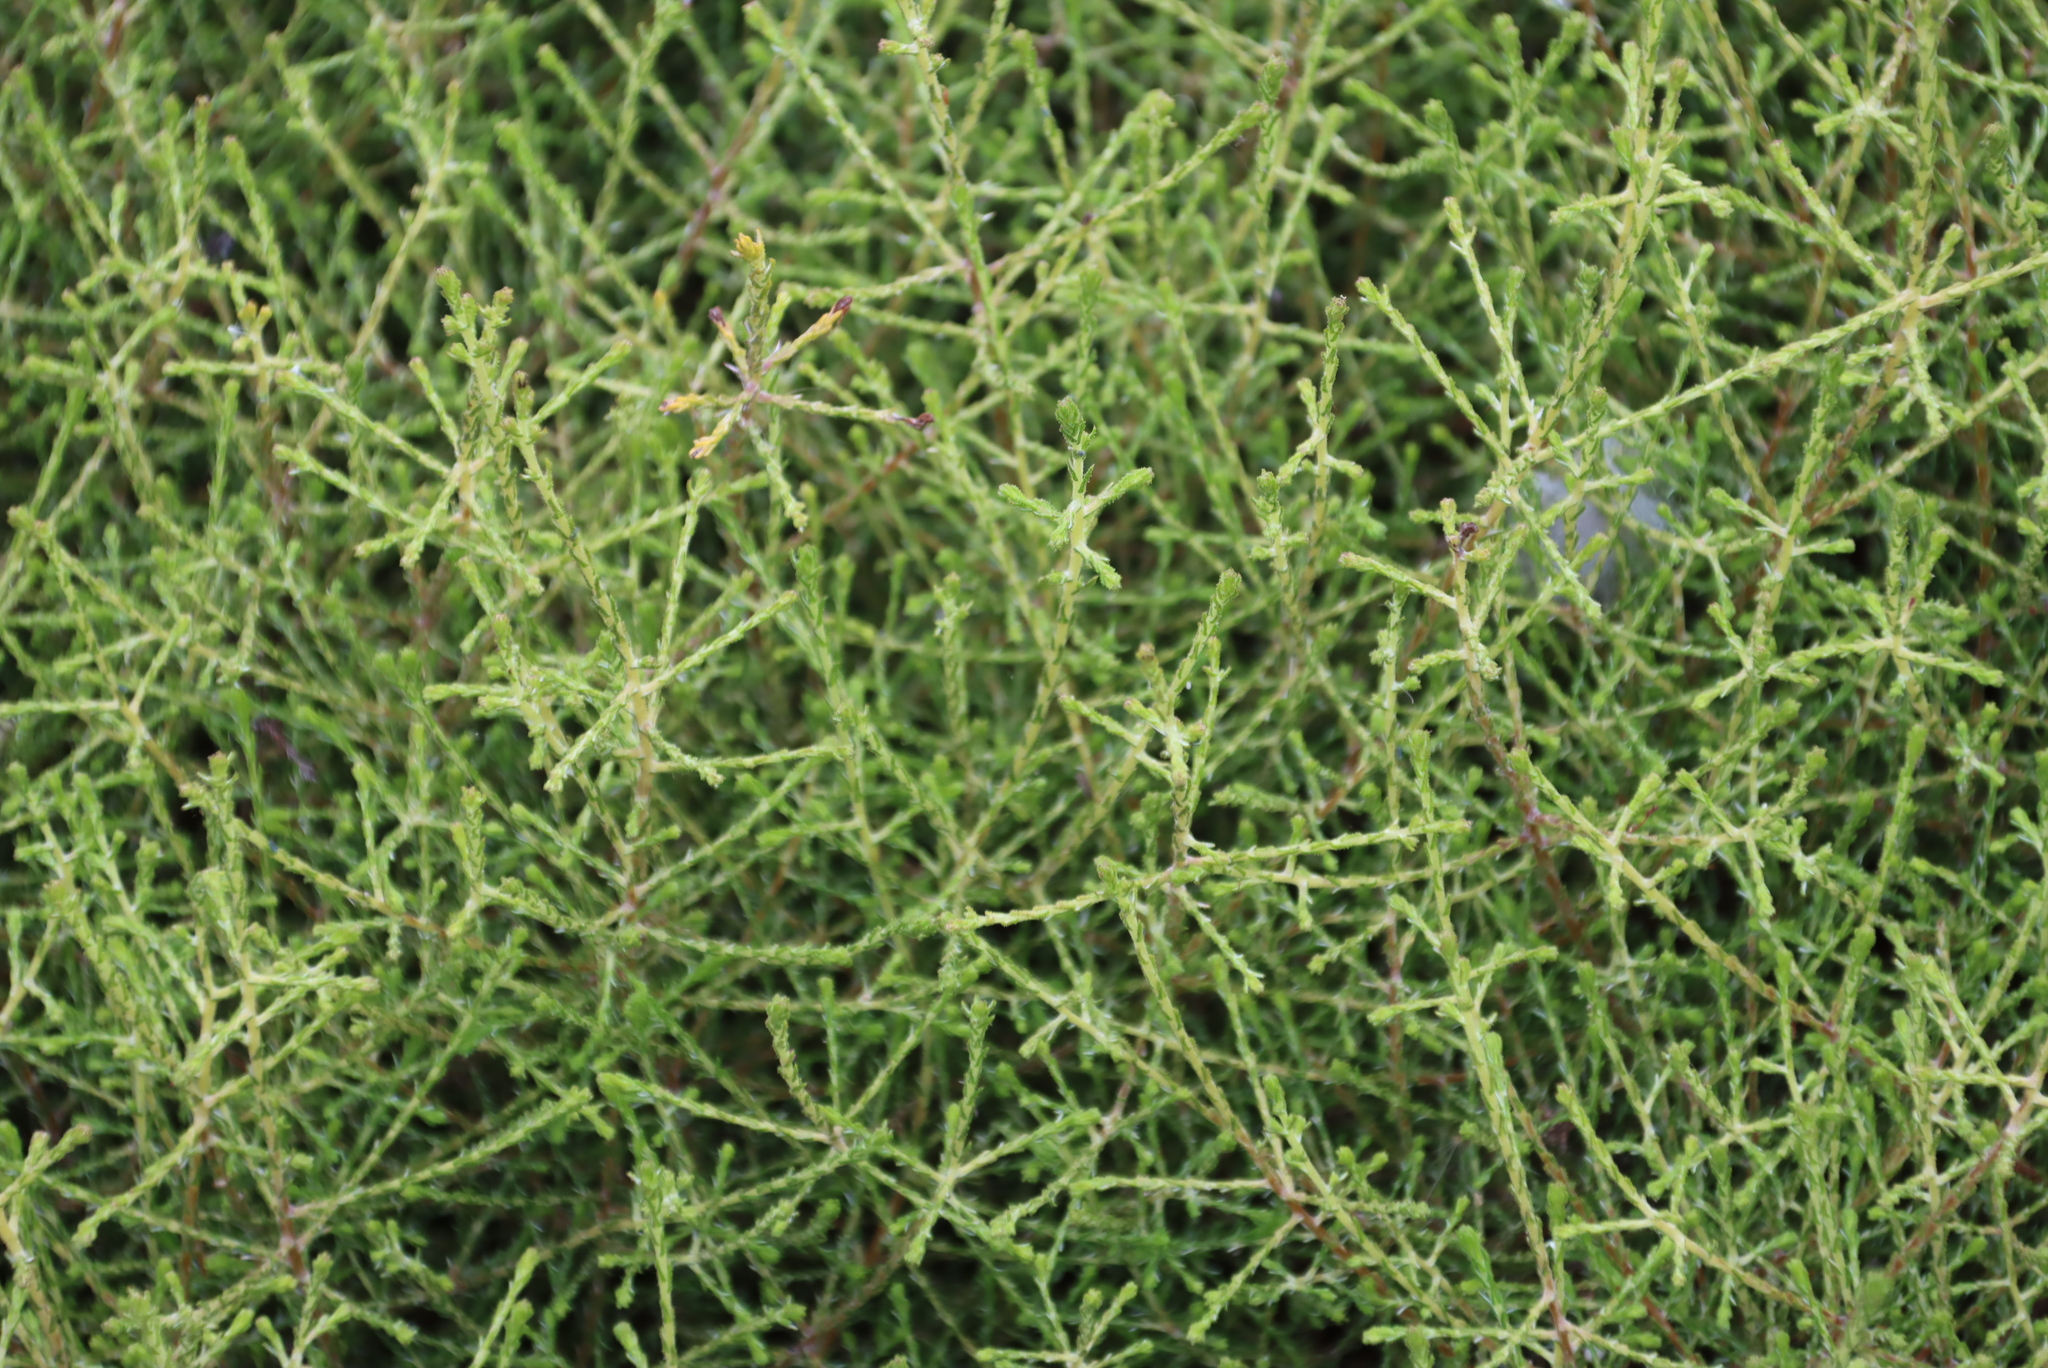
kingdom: Plantae
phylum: Tracheophyta
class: Magnoliopsida
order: Asterales
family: Asteraceae
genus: Myrovernix
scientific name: Myrovernix scaber
